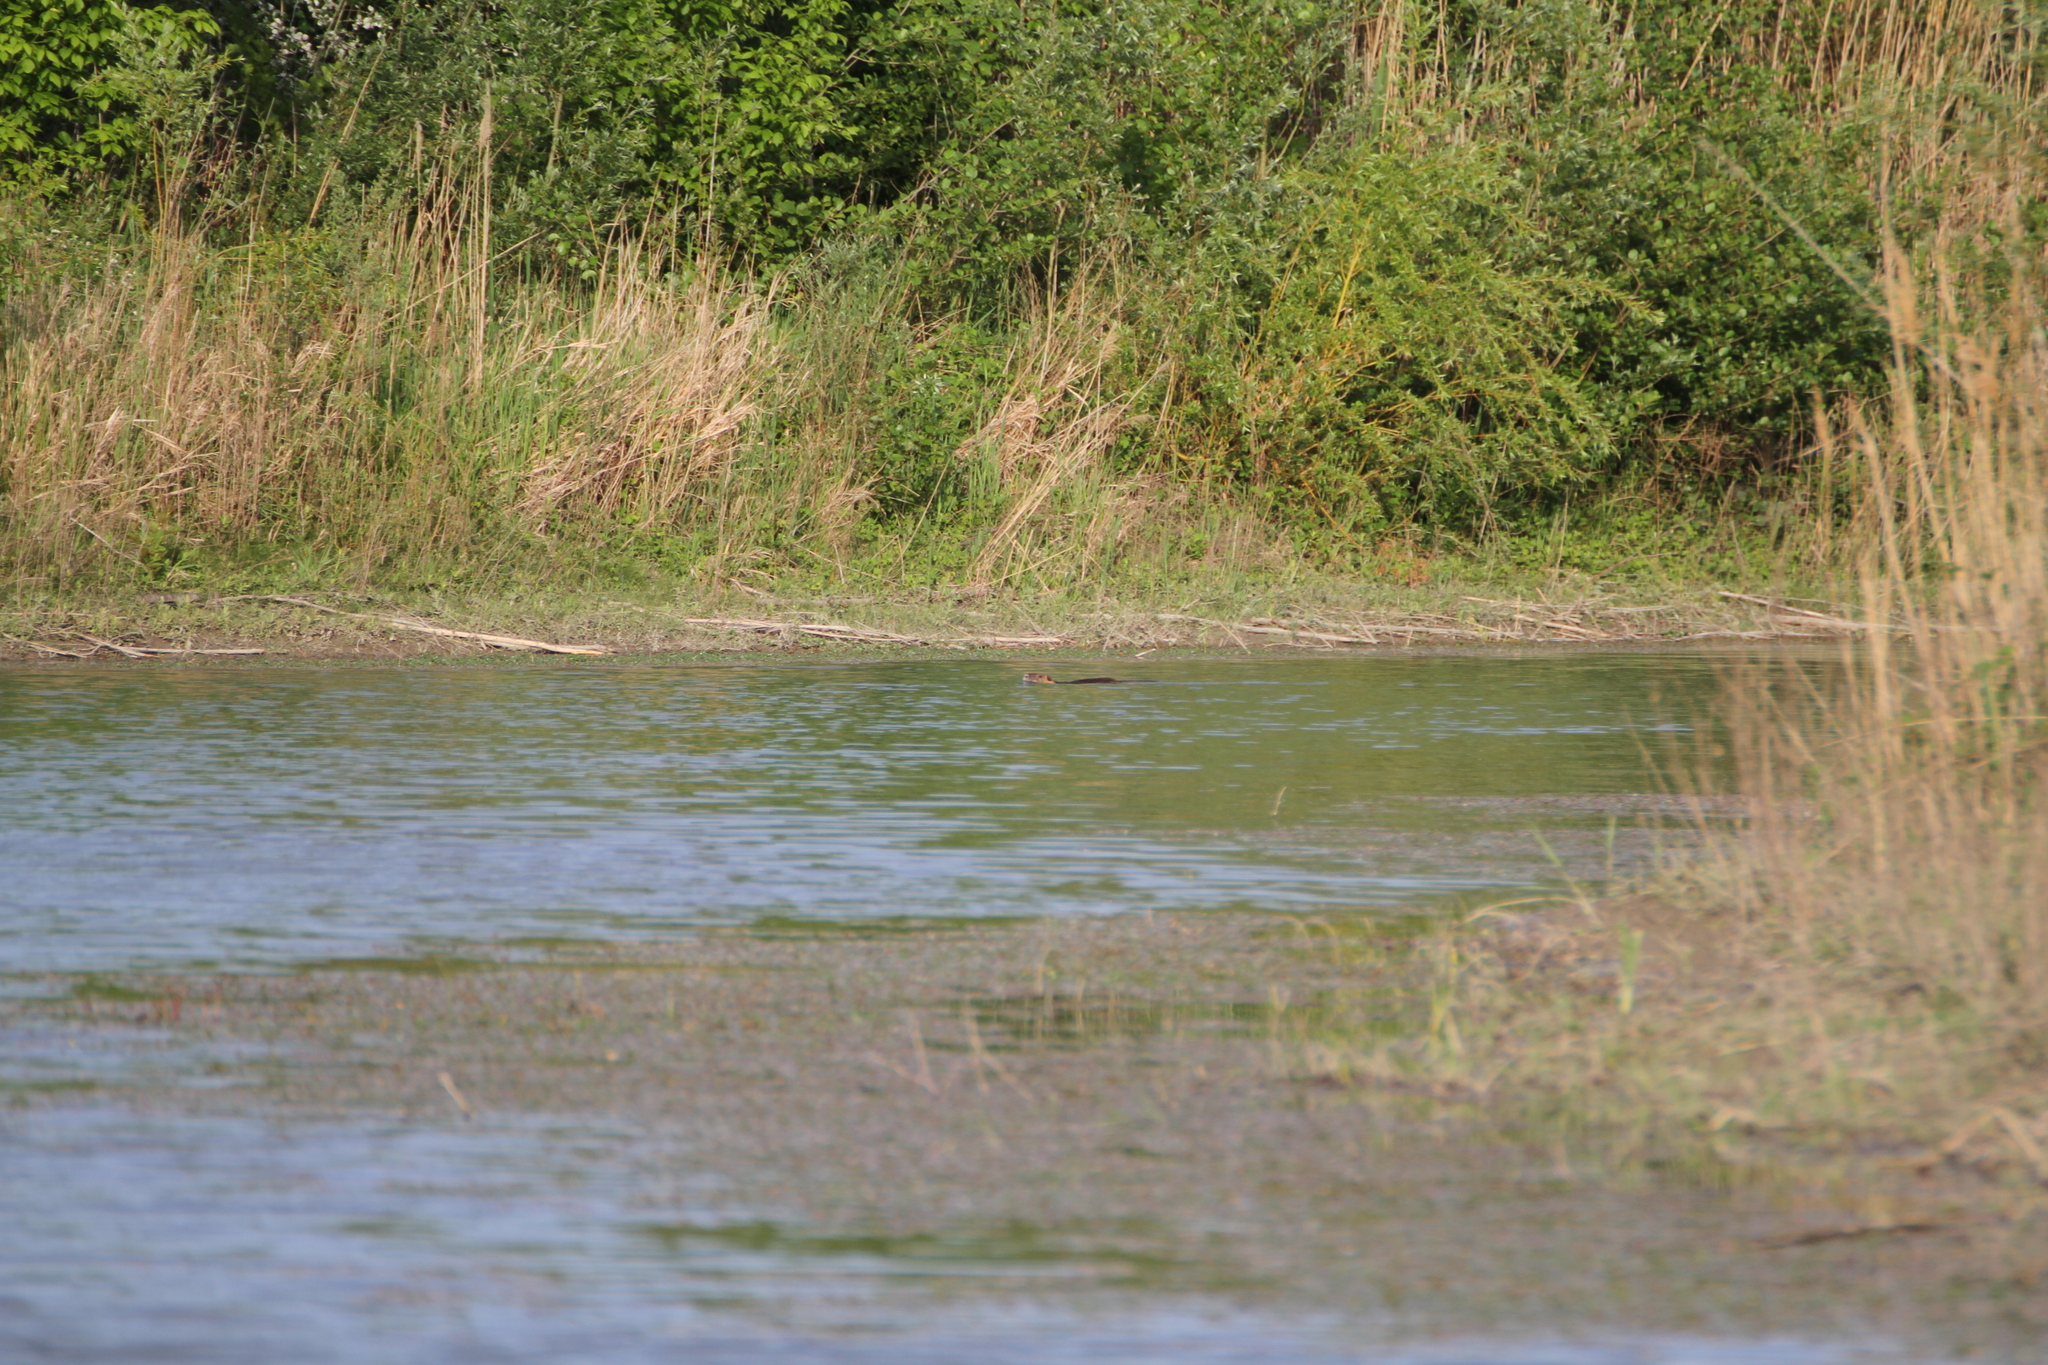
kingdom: Animalia
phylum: Chordata
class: Mammalia
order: Rodentia
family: Myocastoridae
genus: Myocastor
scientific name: Myocastor coypus
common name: Coypu
